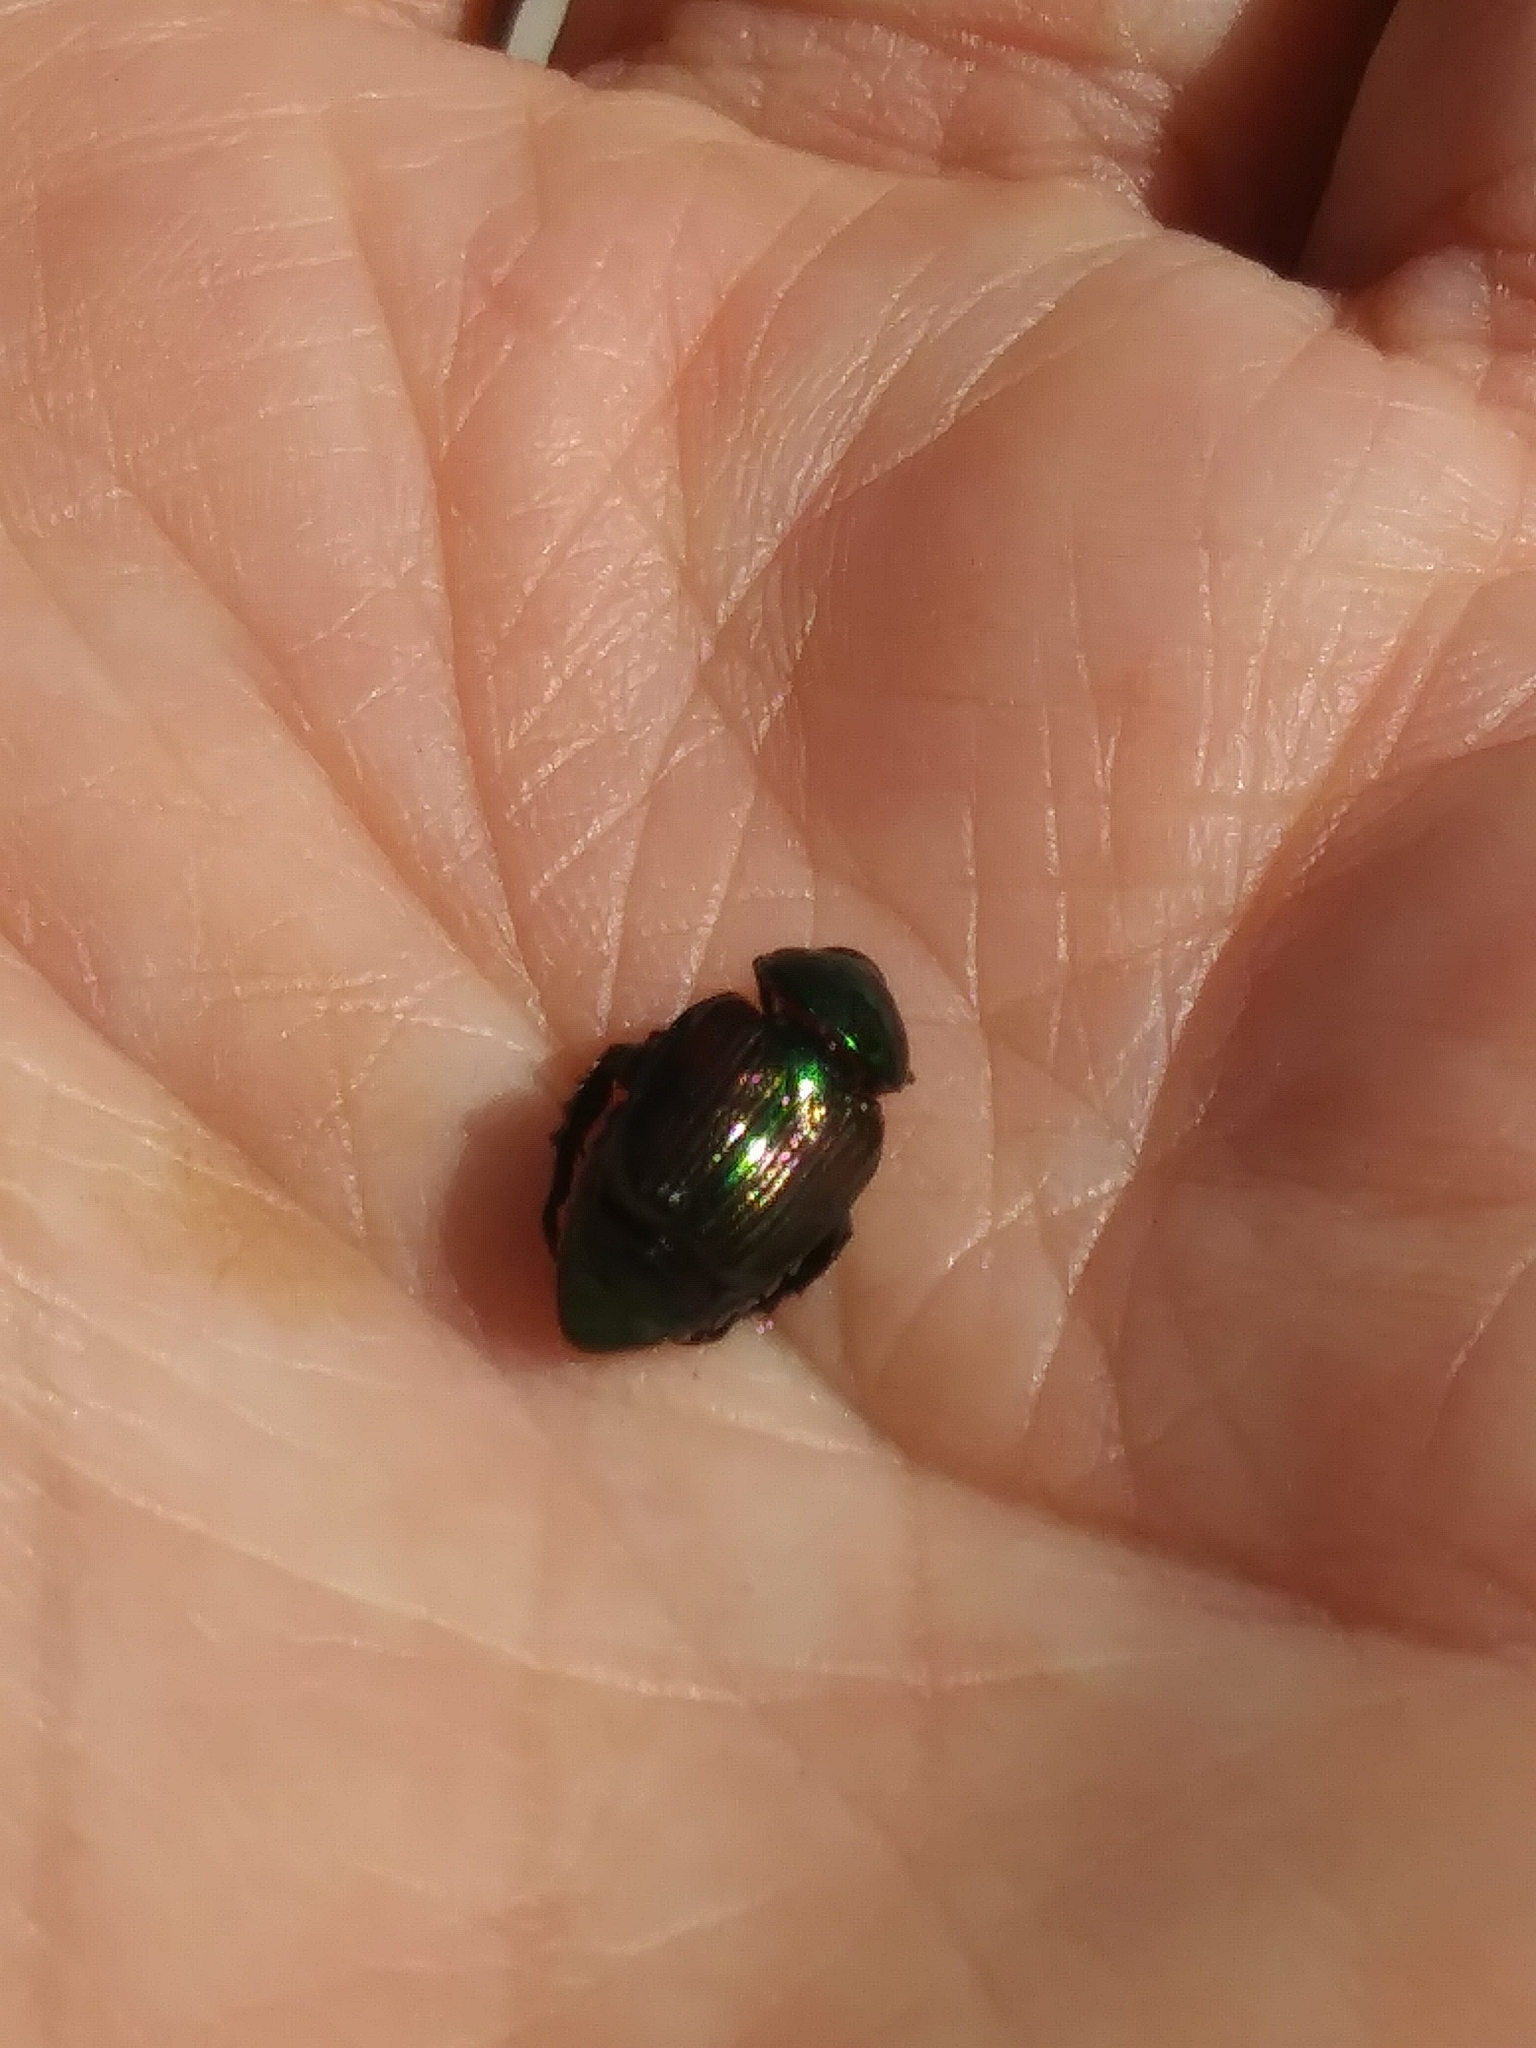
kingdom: Animalia
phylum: Arthropoda
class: Insecta
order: Coleoptera
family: Scarabaeidae
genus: Popillia
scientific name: Popillia japonica
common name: Japanese beetle
